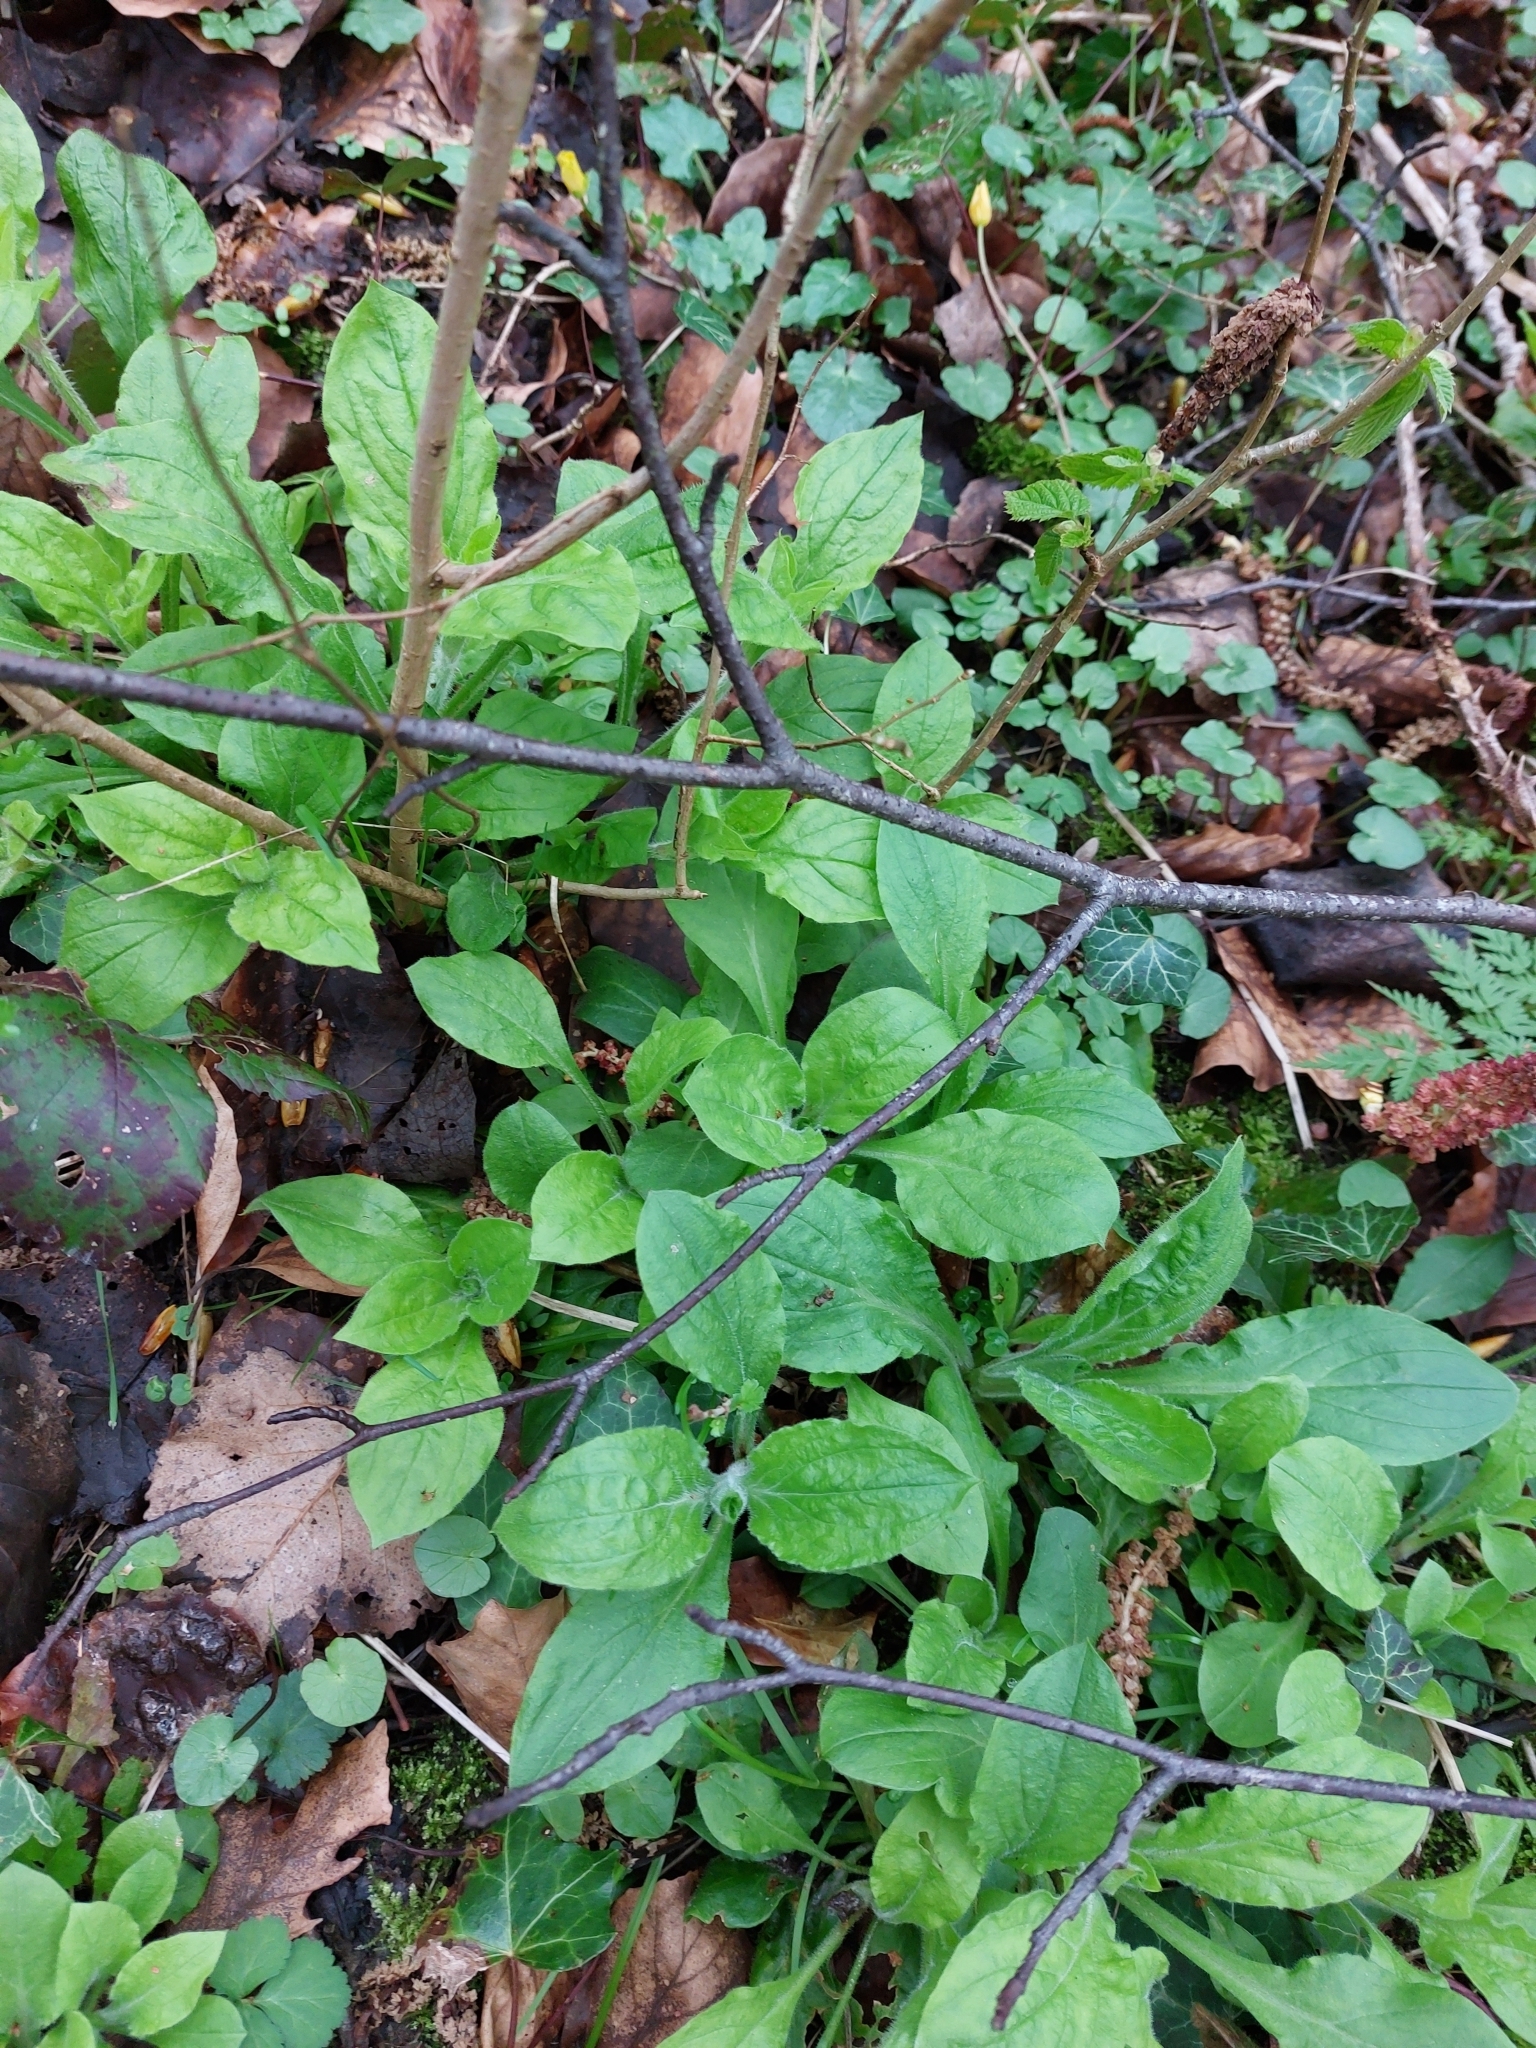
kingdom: Plantae
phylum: Tracheophyta
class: Magnoliopsida
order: Caryophyllales
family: Caryophyllaceae
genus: Silene
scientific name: Silene dioica
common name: Red campion
